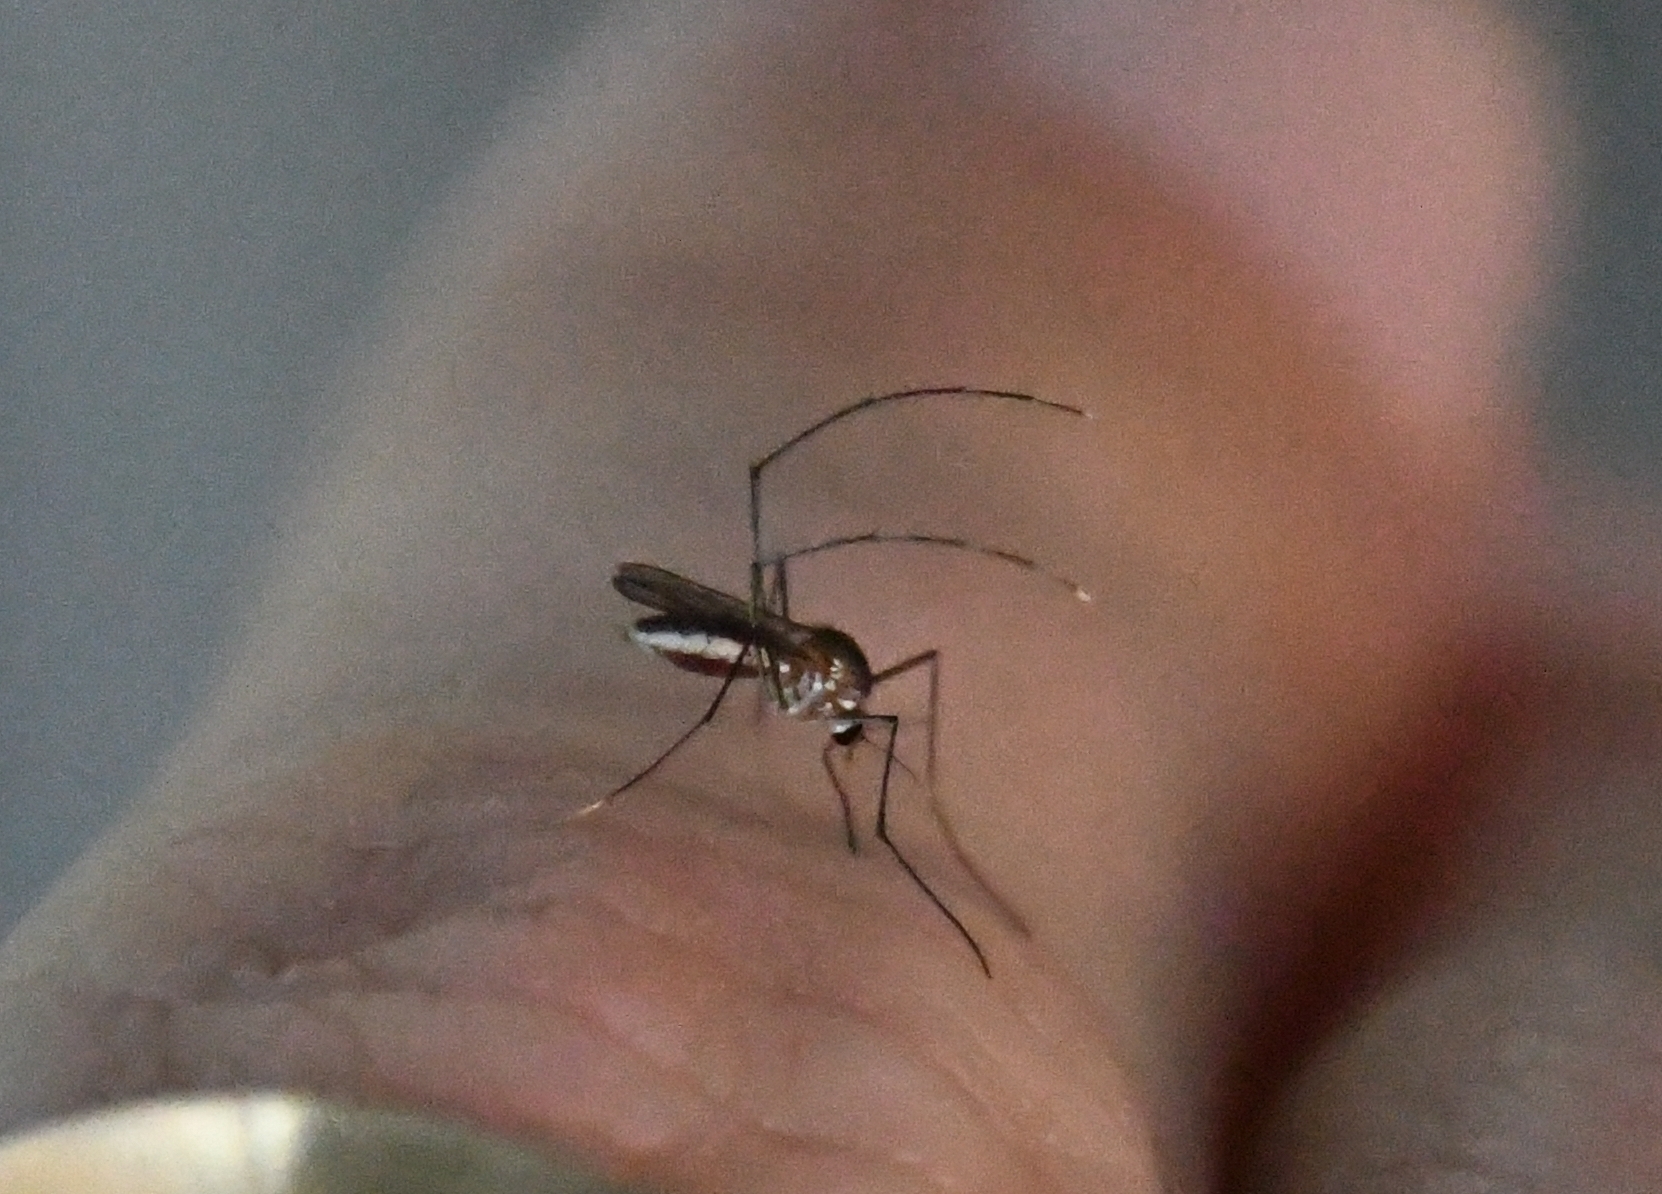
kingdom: Animalia
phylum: Arthropoda
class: Insecta
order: Diptera
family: Culicidae
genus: Wyeomyia
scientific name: Wyeomyia vanduzeei
